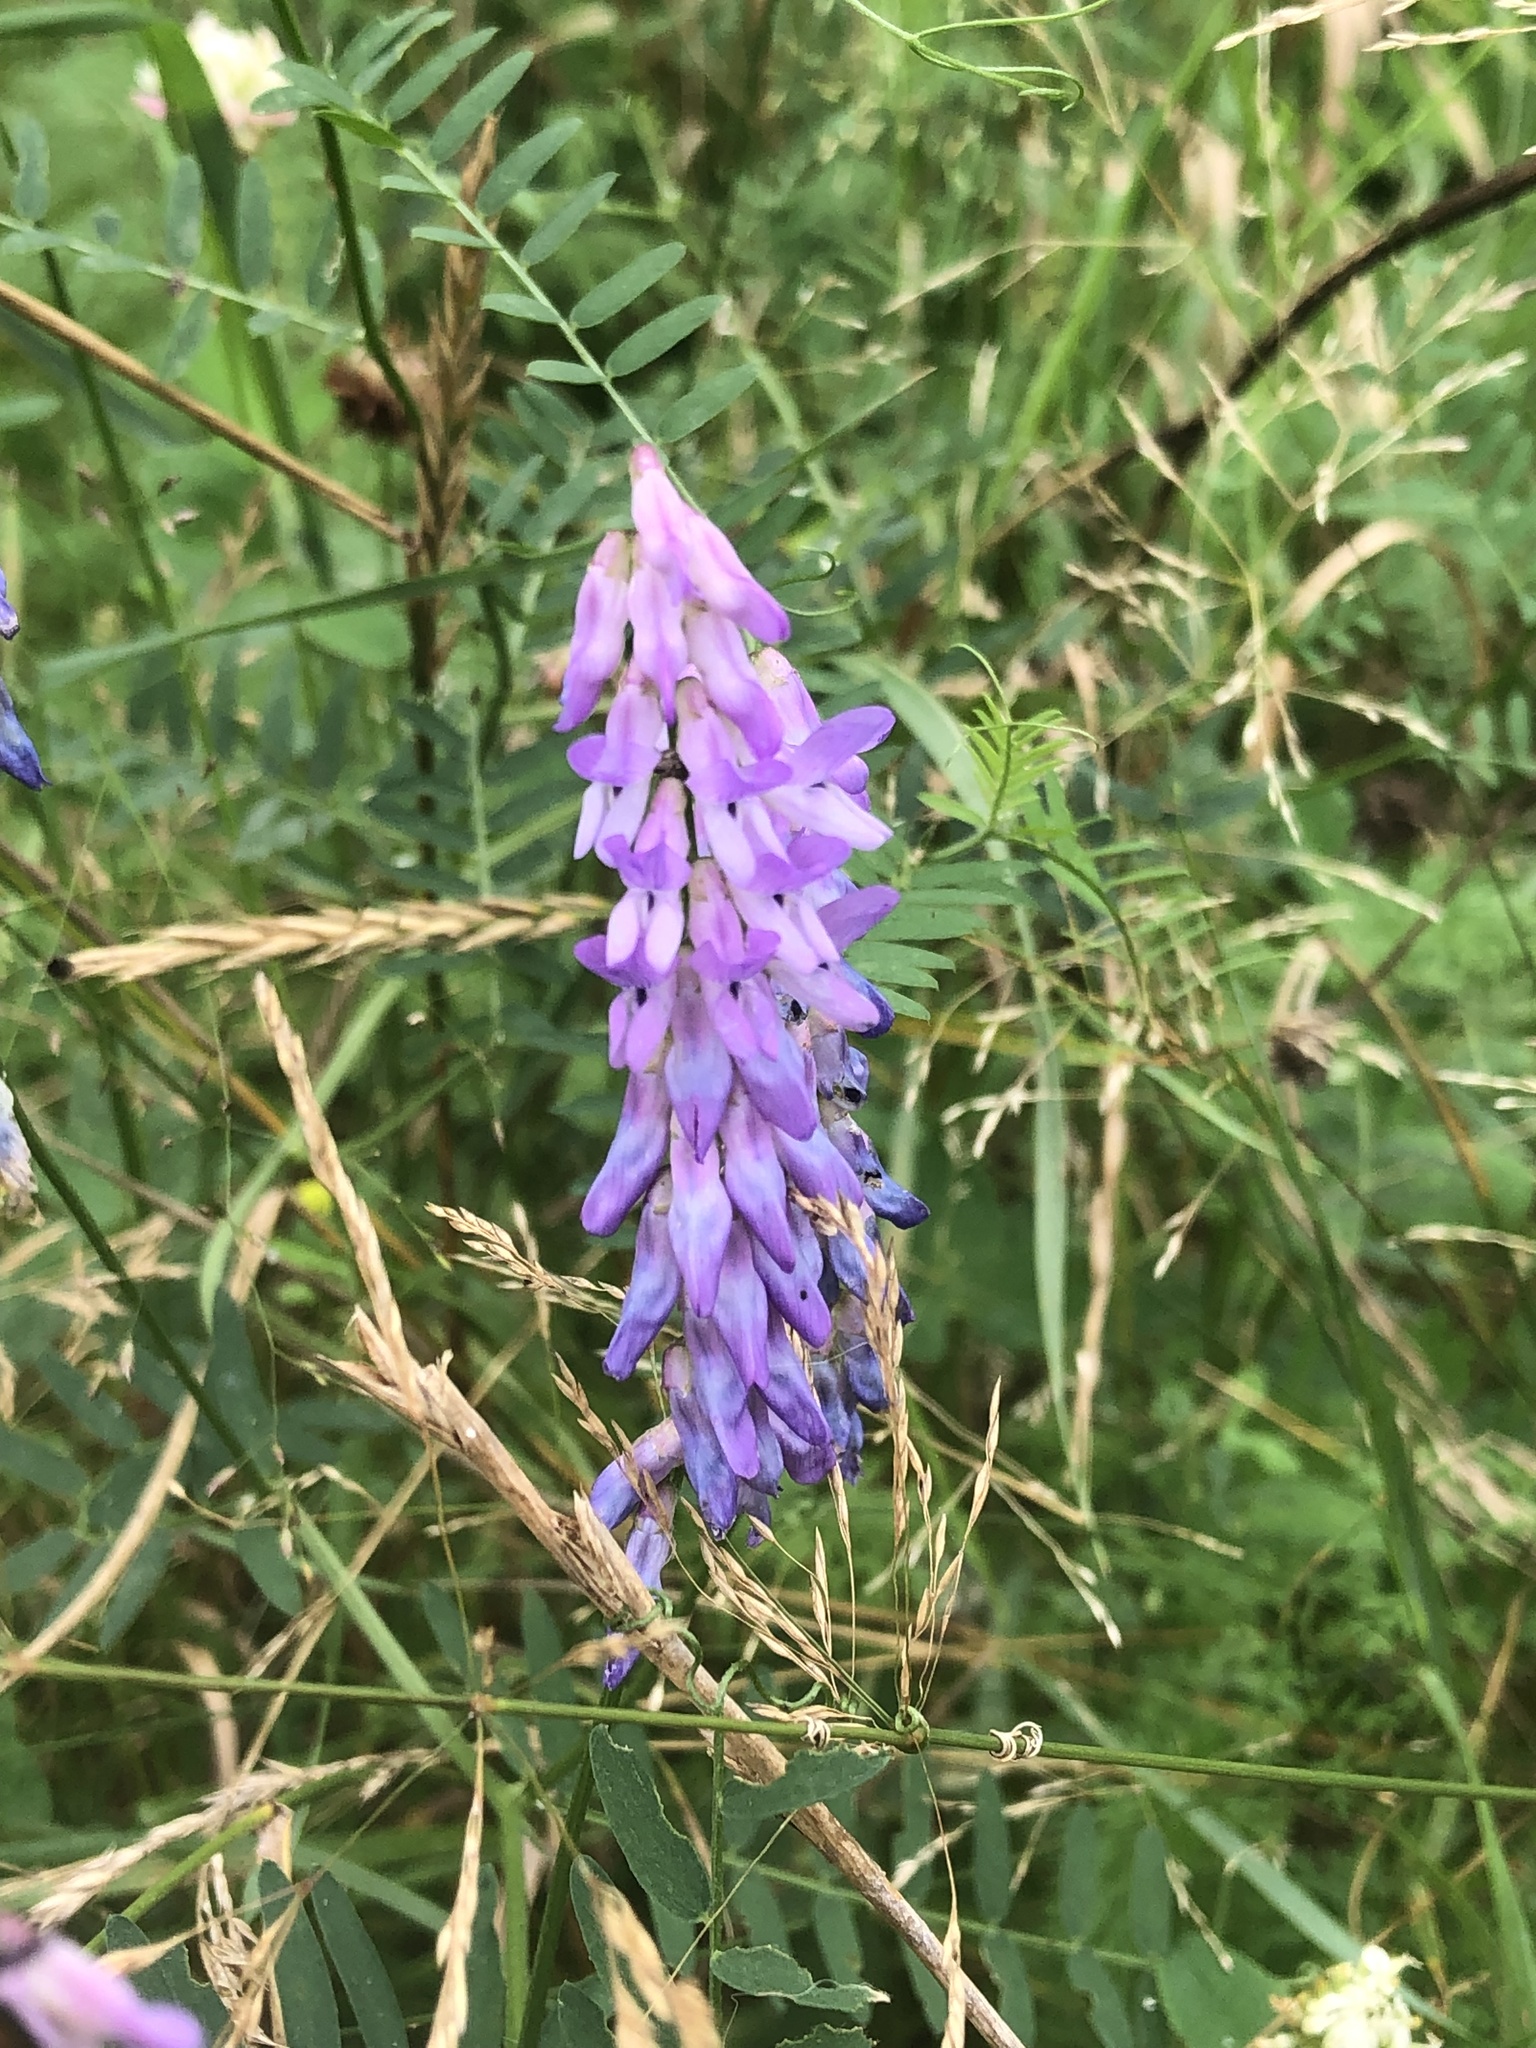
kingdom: Plantae
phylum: Tracheophyta
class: Magnoliopsida
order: Fabales
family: Fabaceae
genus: Vicia
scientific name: Vicia cracca
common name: Bird vetch
